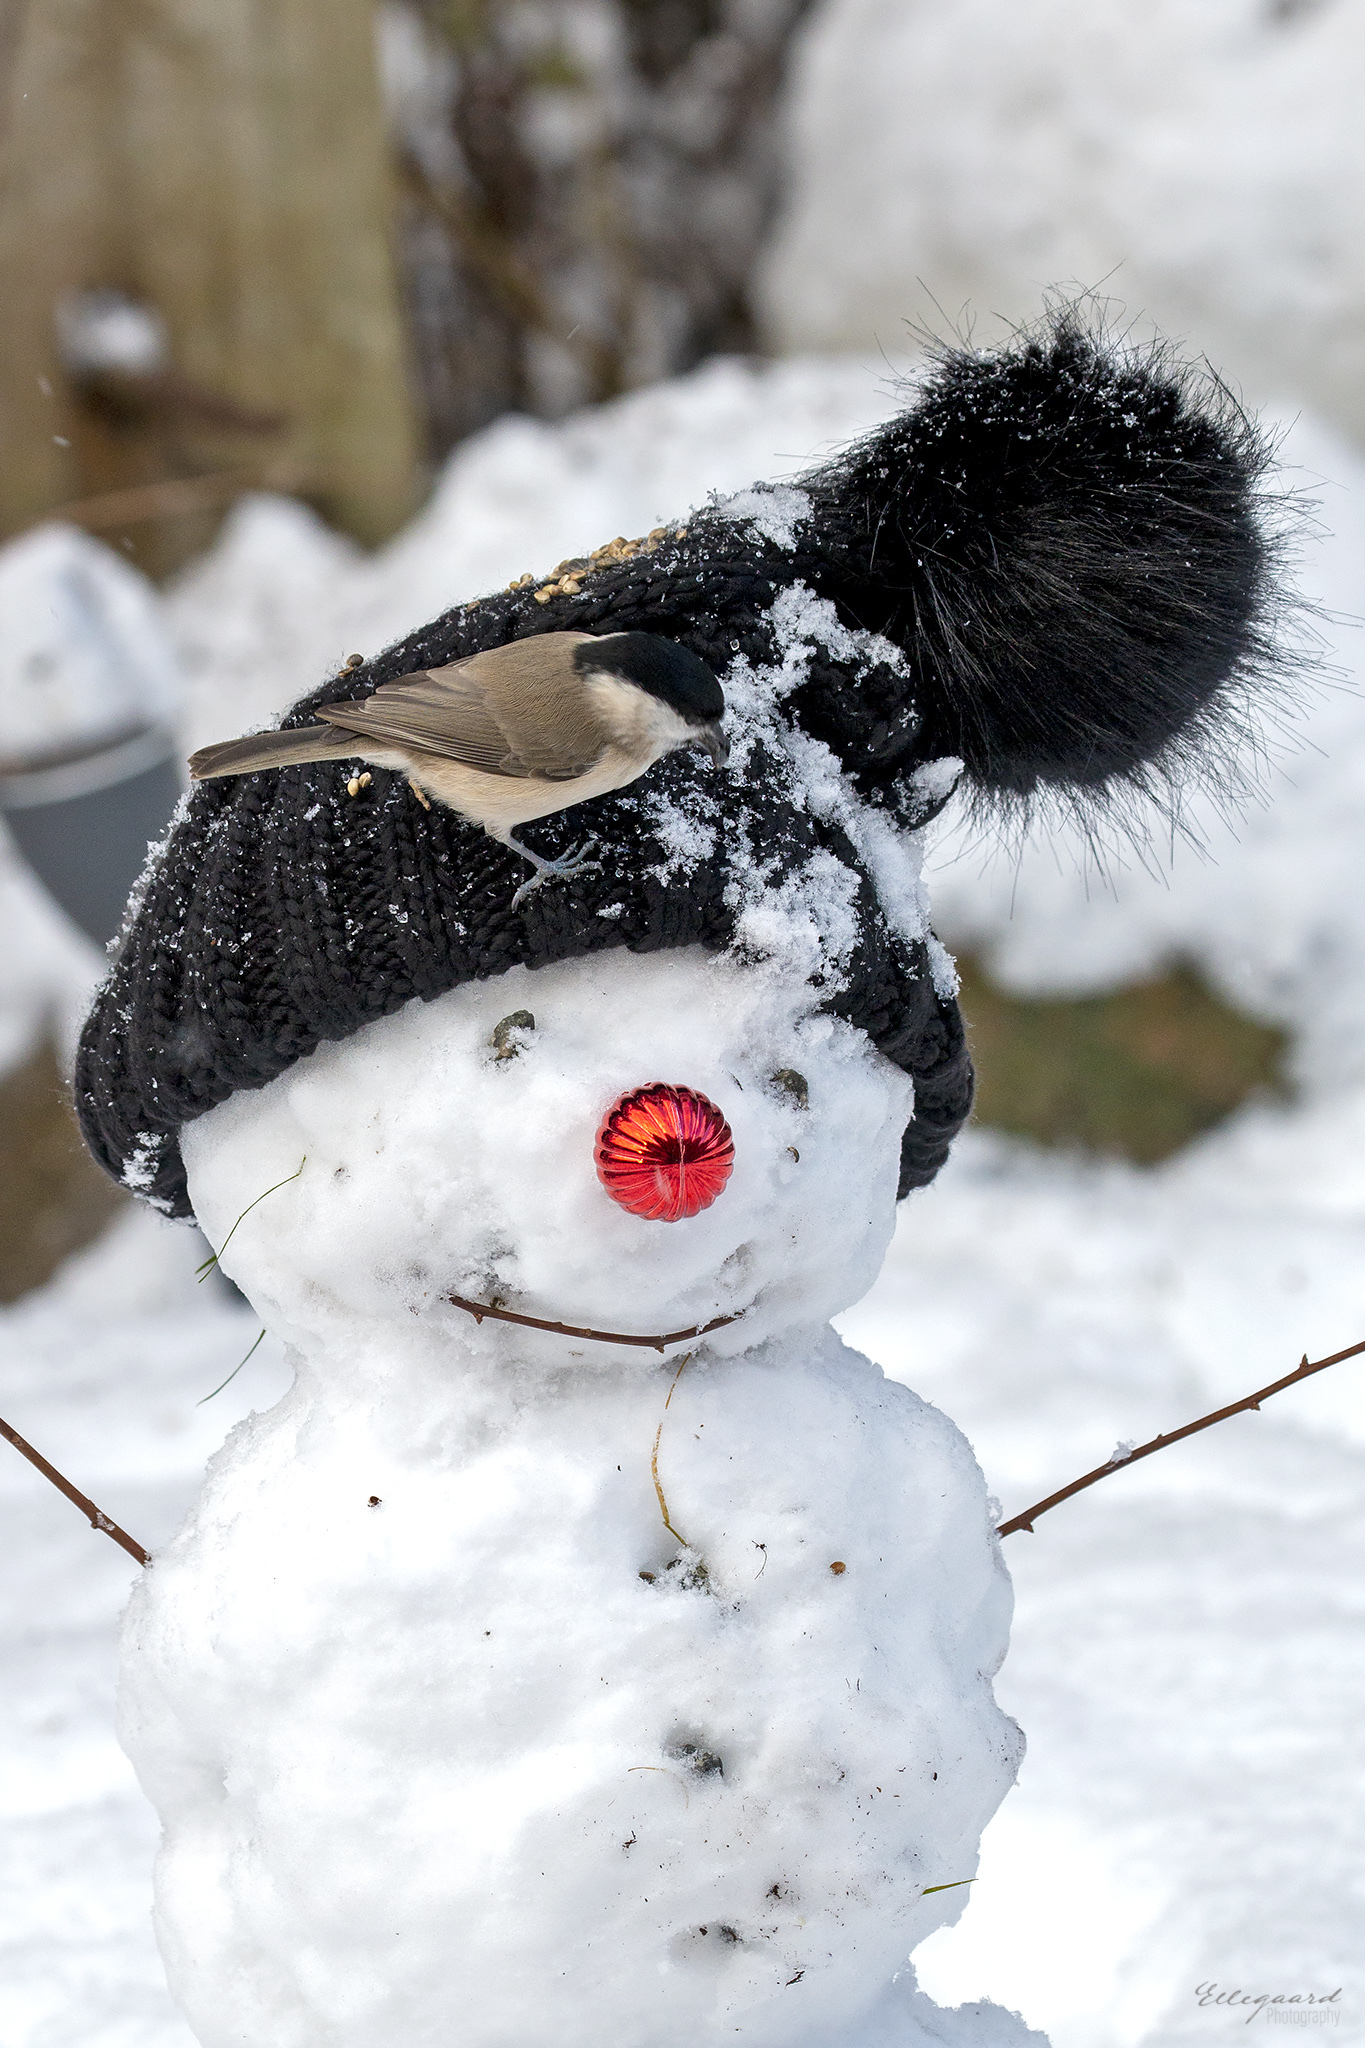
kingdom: Animalia
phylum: Chordata
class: Aves
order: Passeriformes
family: Paridae
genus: Poecile
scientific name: Poecile palustris
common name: Marsh tit
